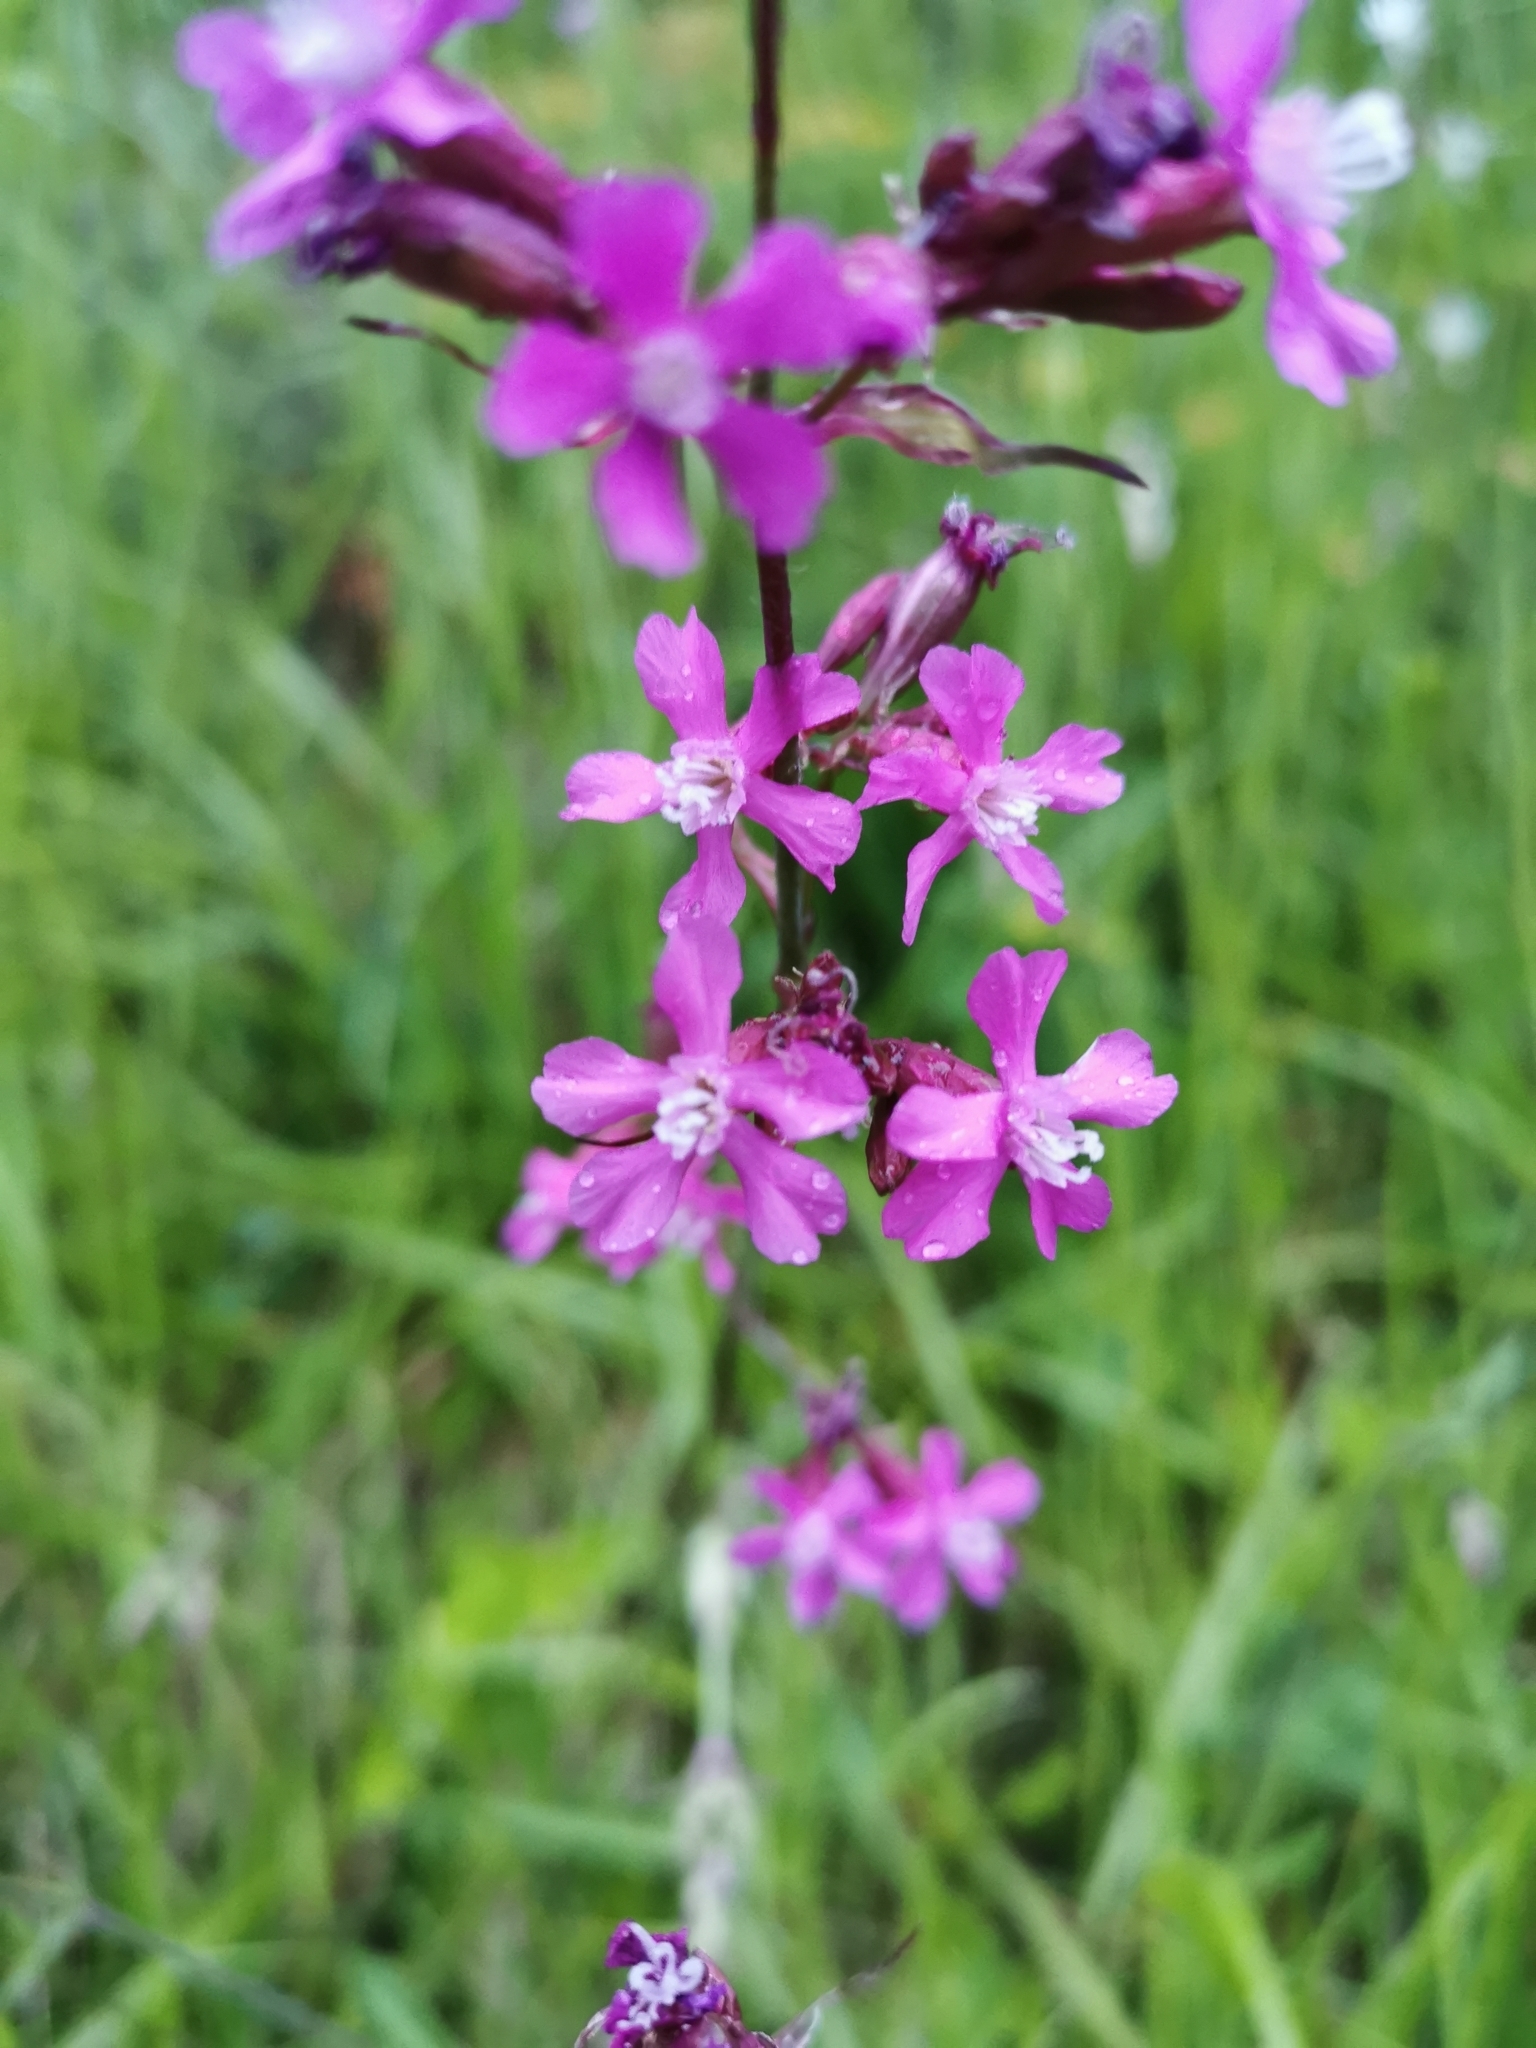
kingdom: Plantae
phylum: Tracheophyta
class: Magnoliopsida
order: Caryophyllales
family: Caryophyllaceae
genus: Viscaria
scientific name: Viscaria vulgaris
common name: Clammy campion
